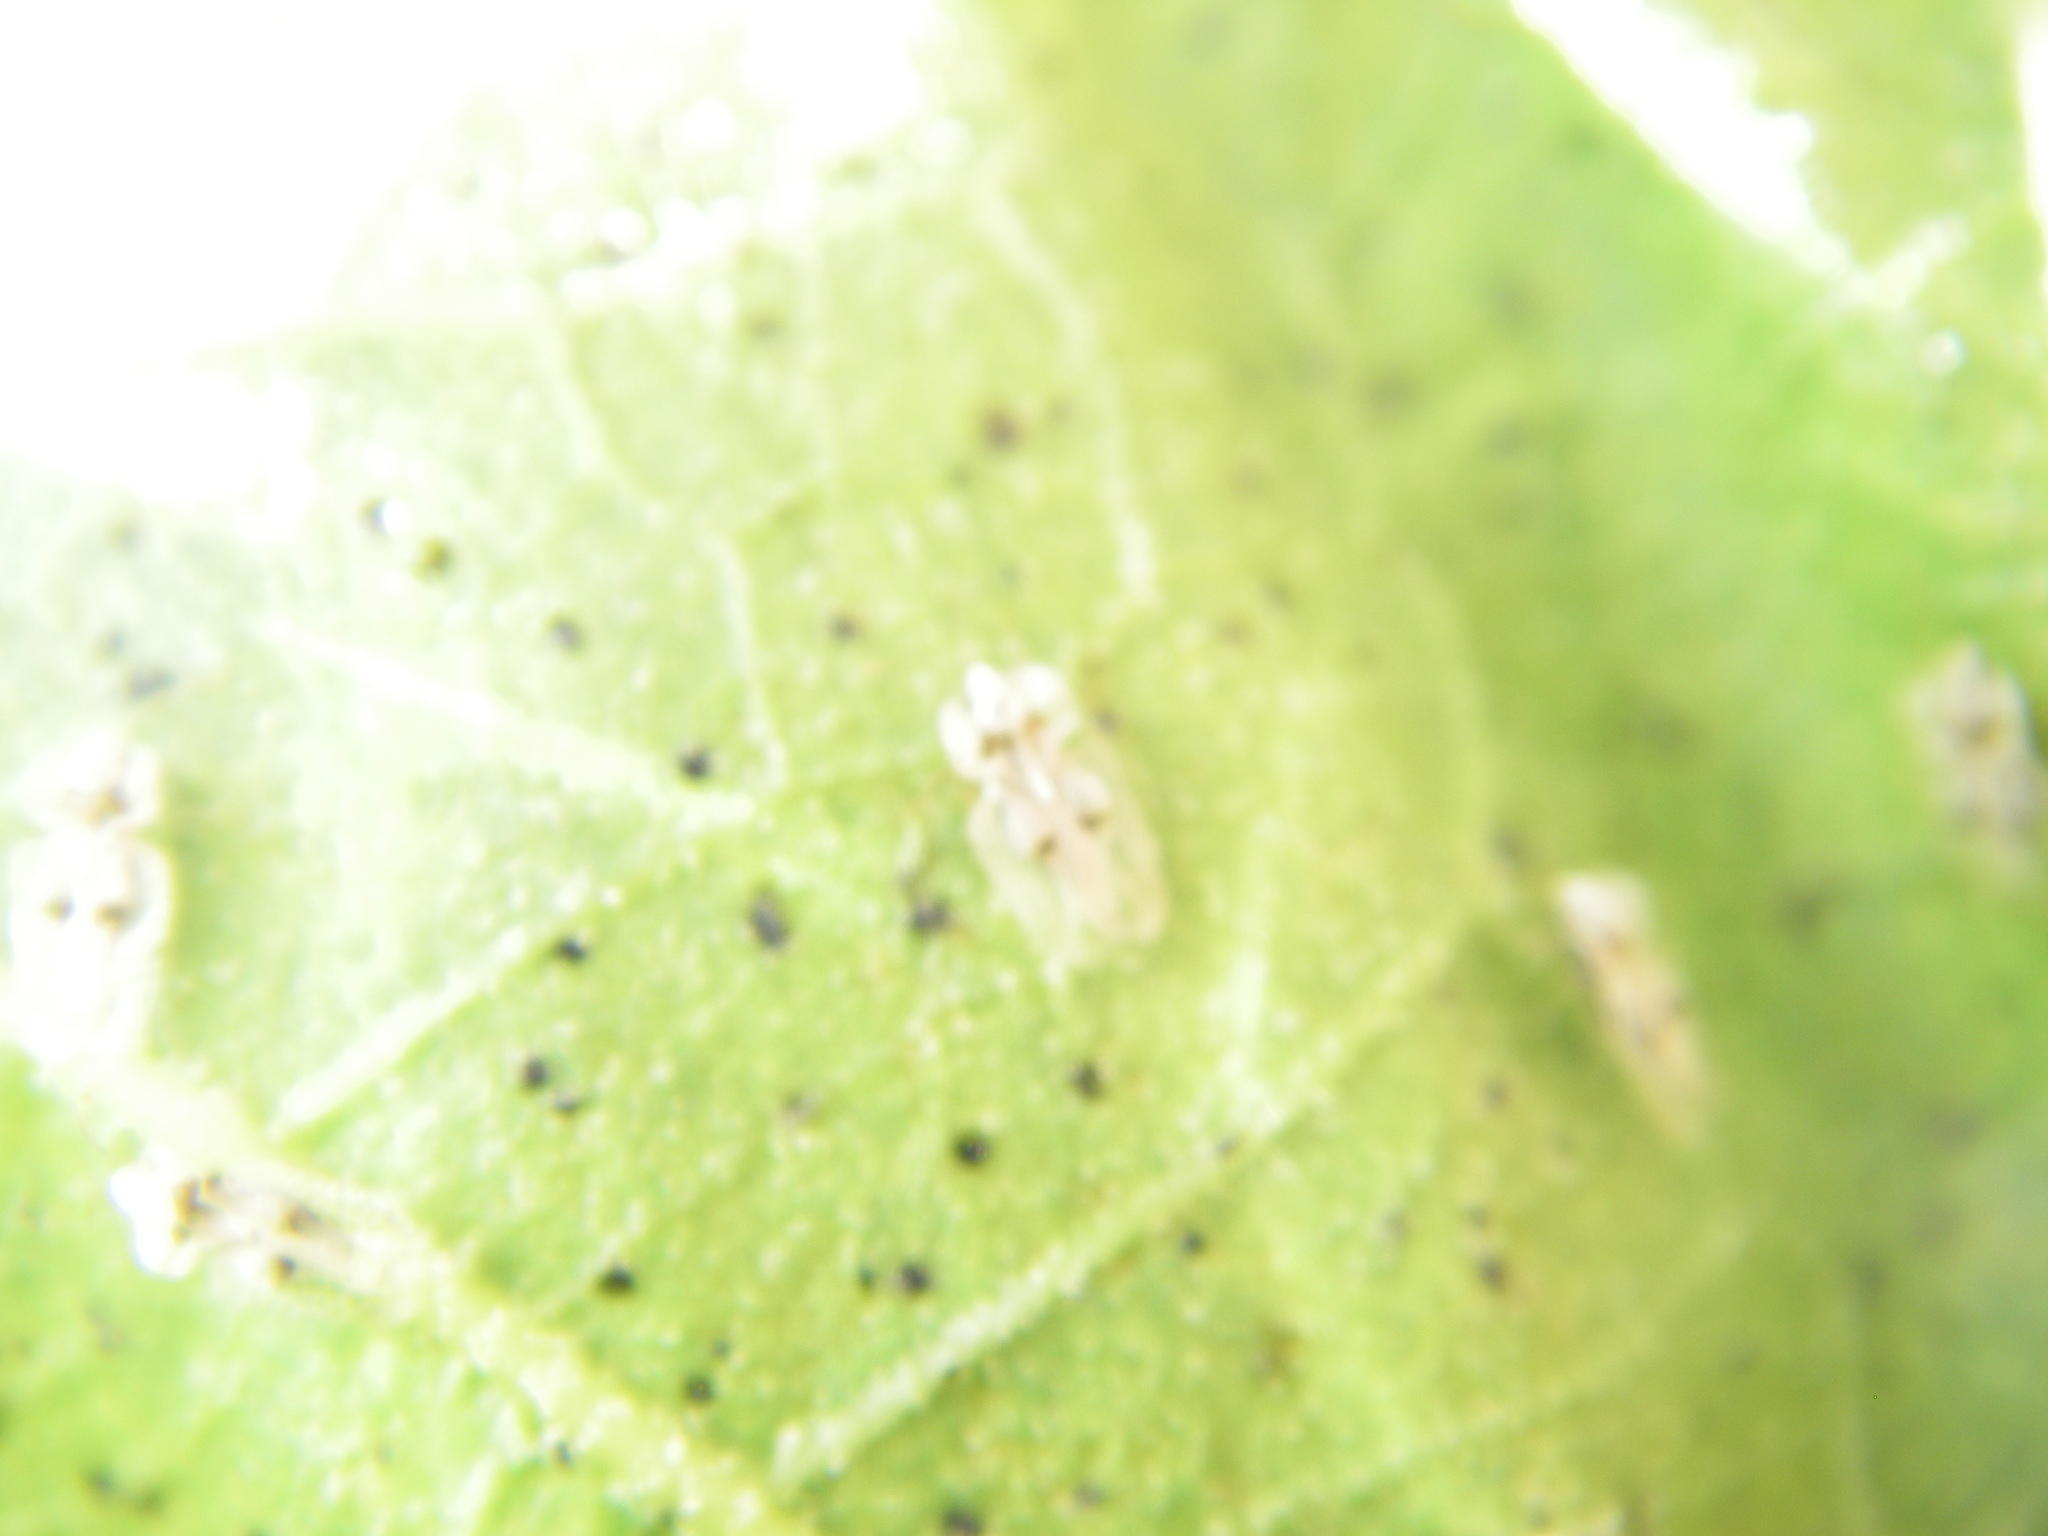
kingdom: Animalia
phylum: Arthropoda
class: Insecta
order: Hemiptera
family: Tingidae
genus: Corythucha
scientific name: Corythucha ciliata
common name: Sycamore lace bug
